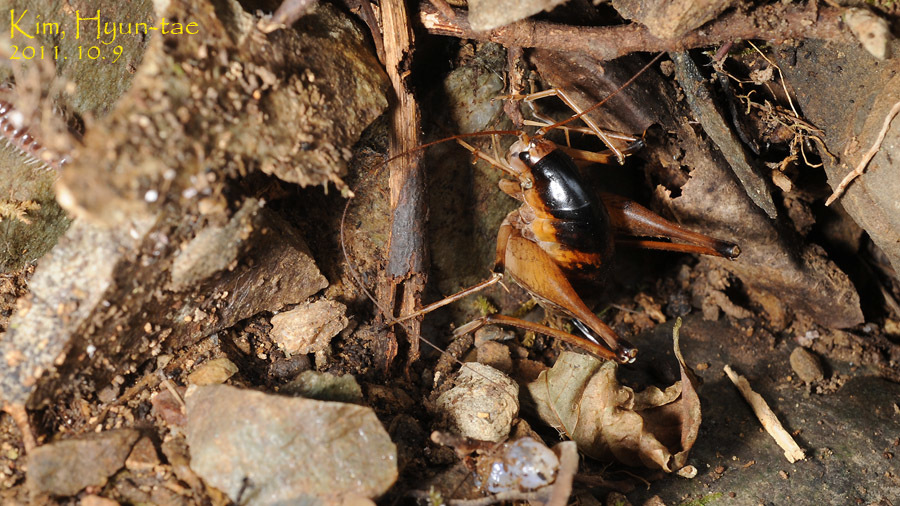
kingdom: Animalia
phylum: Arthropoda
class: Insecta
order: Orthoptera
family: Rhaphidophoridae
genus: Diestrammena
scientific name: Diestrammena unicolor
